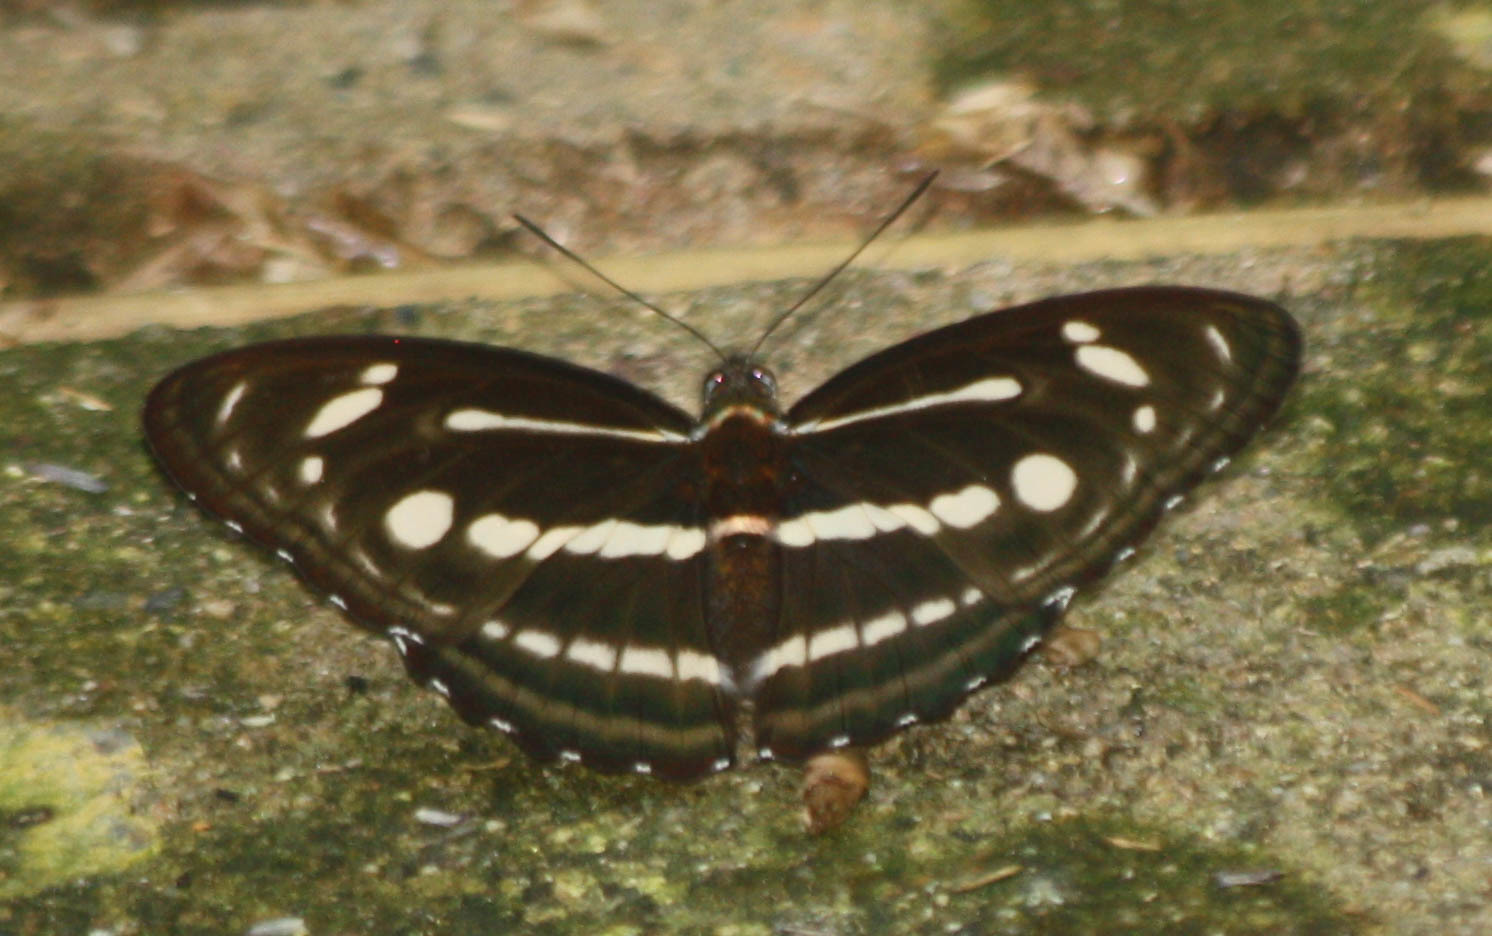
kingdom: Animalia
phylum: Arthropoda
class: Insecta
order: Lepidoptera
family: Nymphalidae
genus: Parathyma
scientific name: Parathyma pravara
